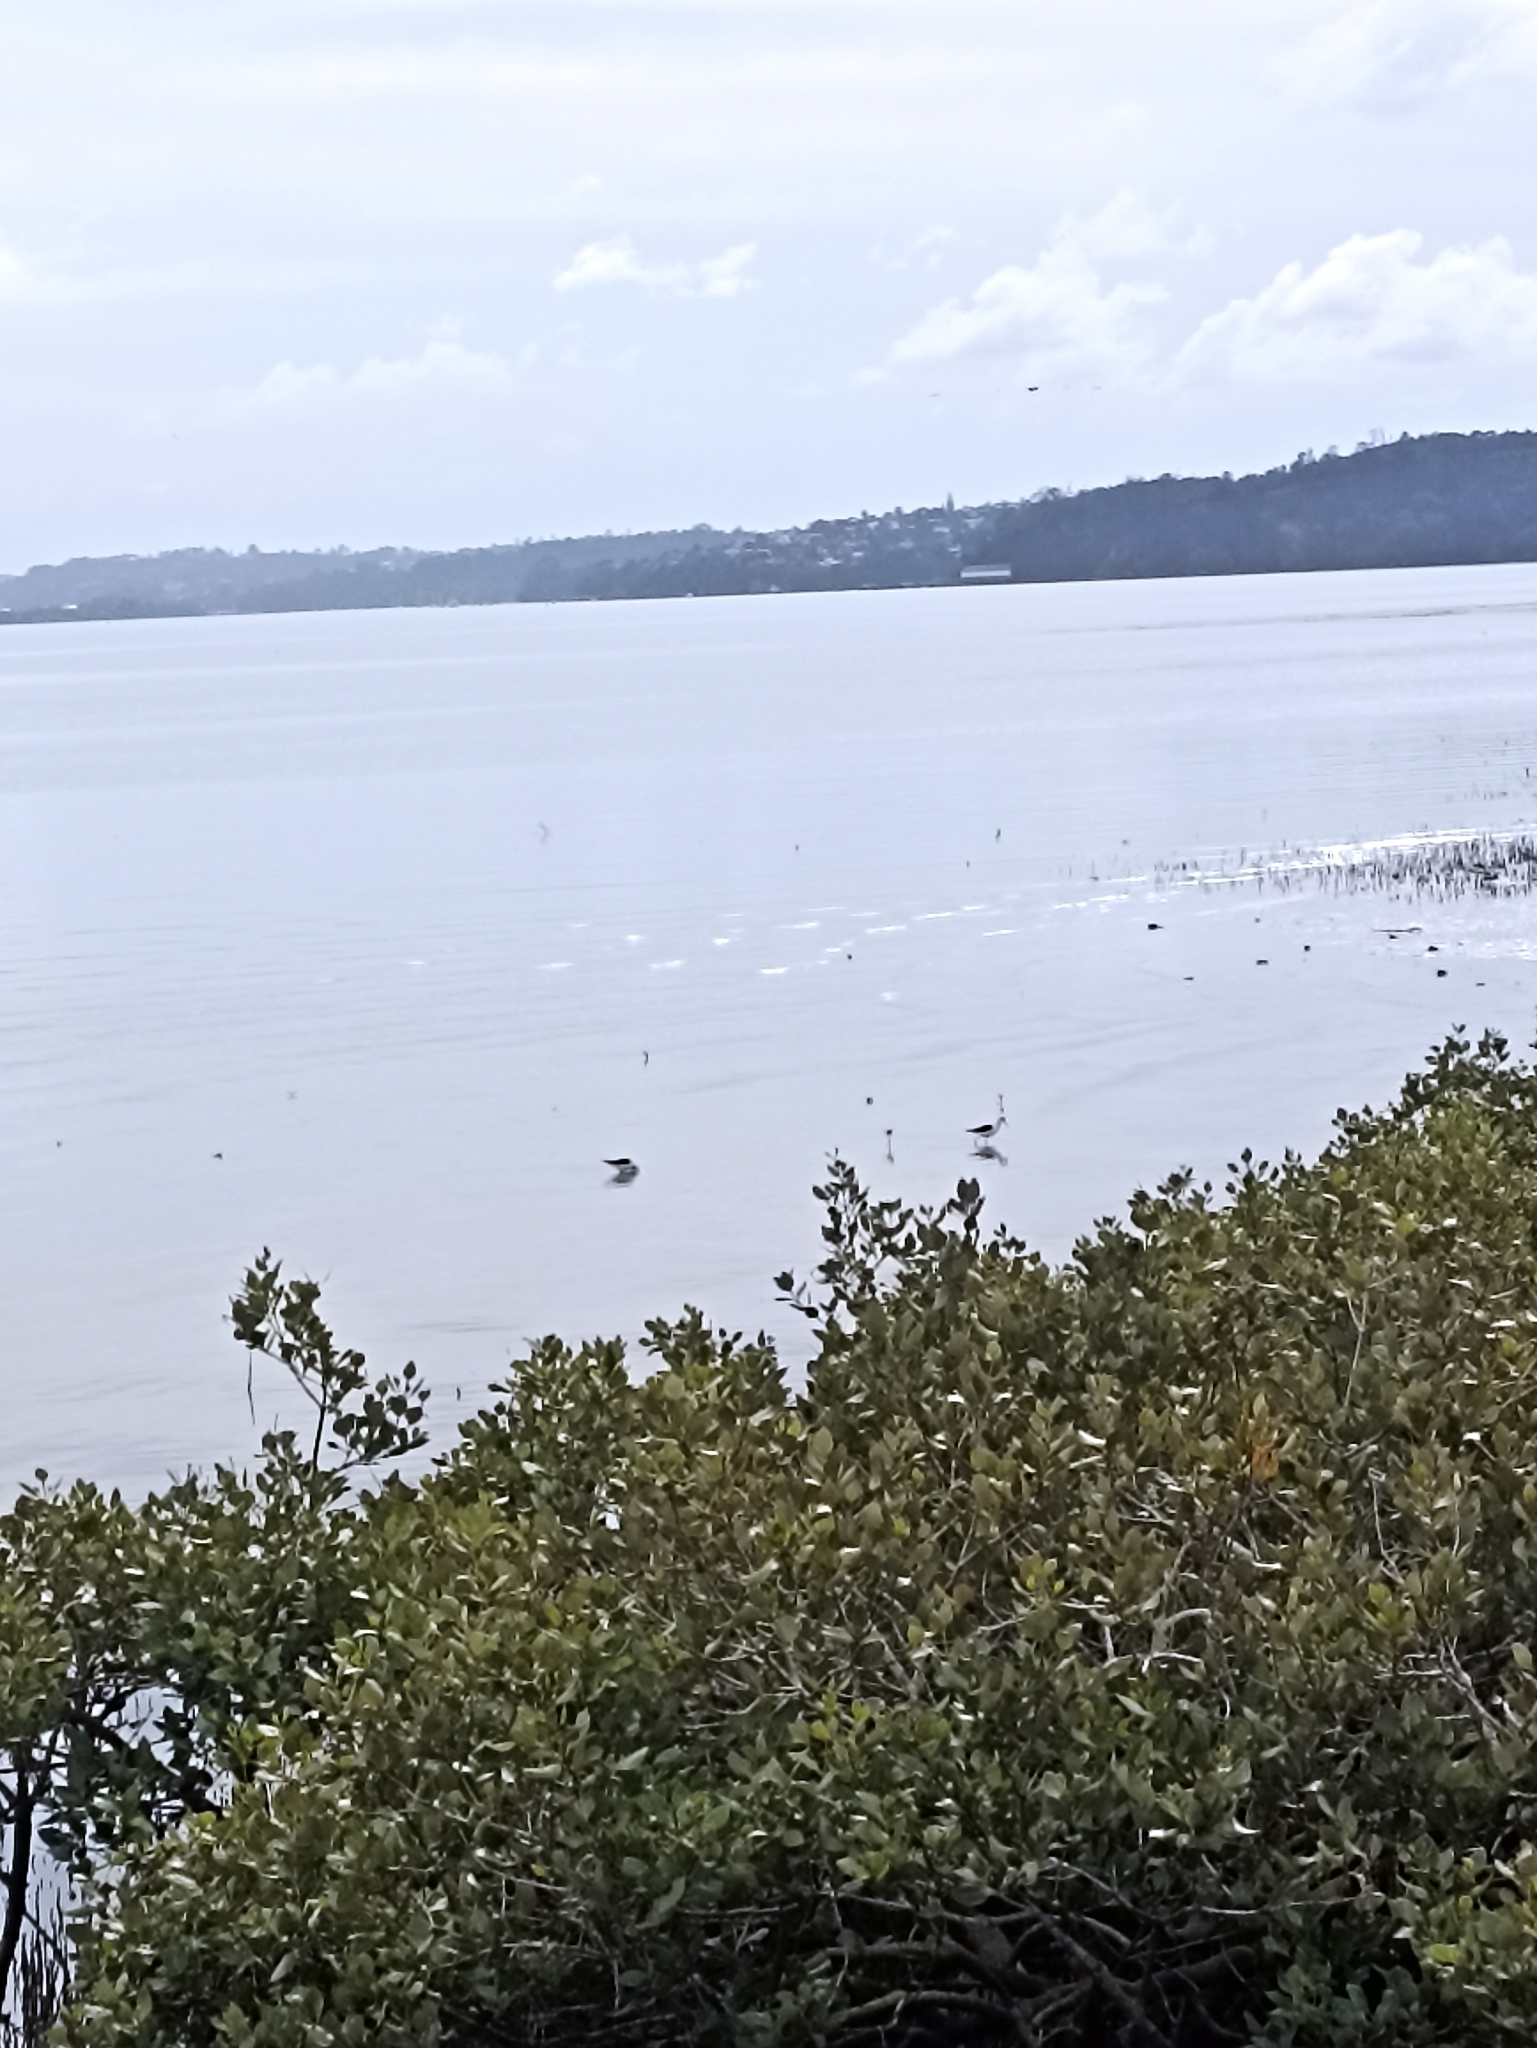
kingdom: Animalia
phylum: Chordata
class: Aves
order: Charadriiformes
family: Recurvirostridae
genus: Himantopus
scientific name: Himantopus leucocephalus
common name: White-headed stilt
